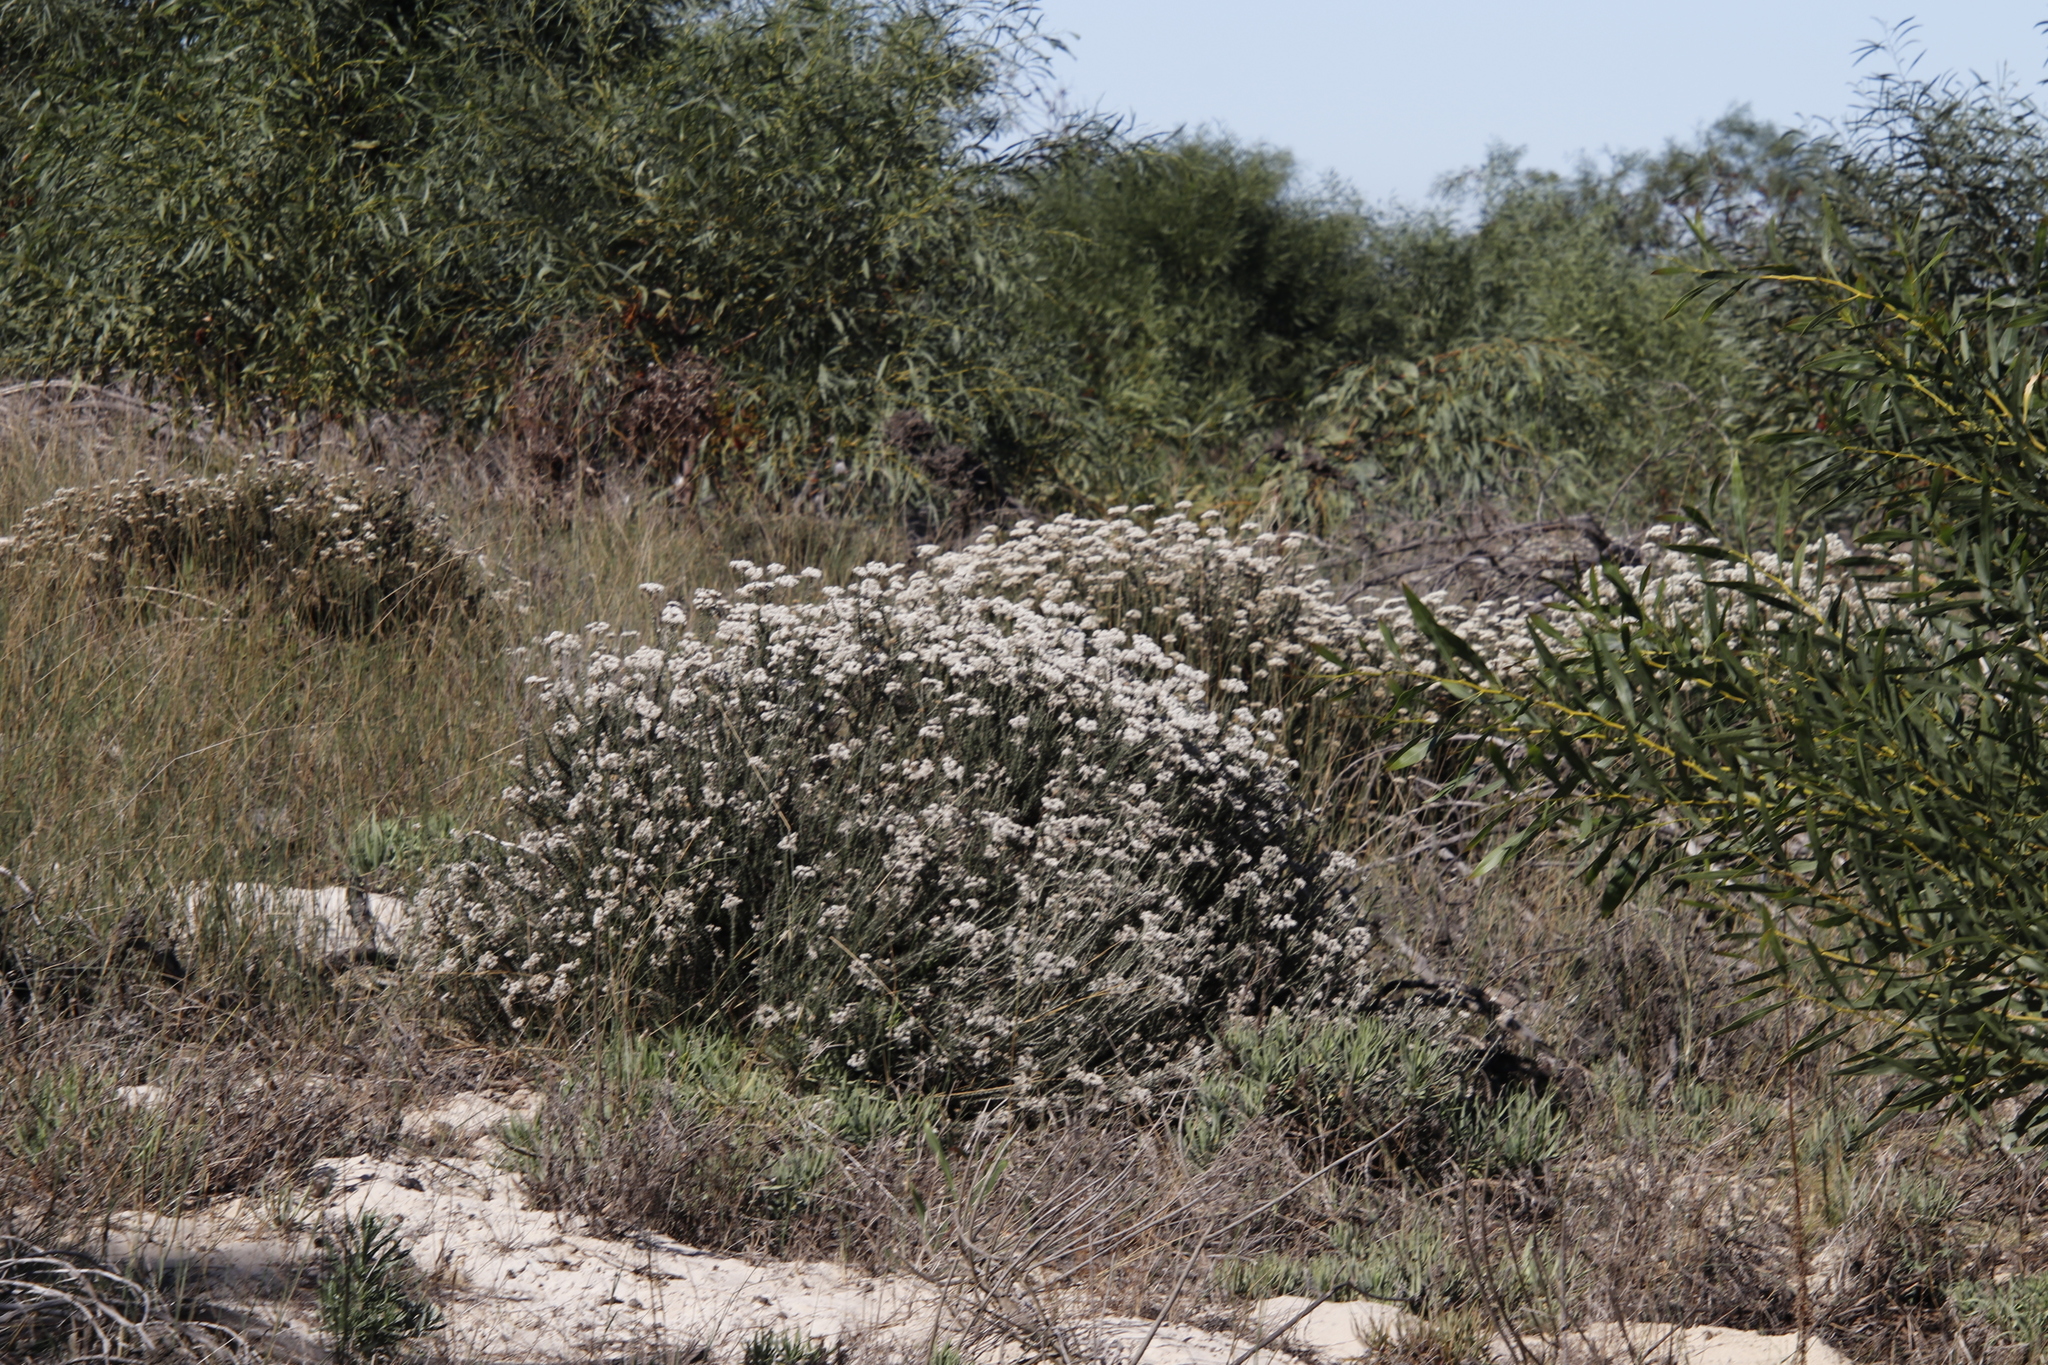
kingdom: Plantae
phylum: Tracheophyta
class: Magnoliopsida
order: Asterales
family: Asteraceae
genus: Metalasia
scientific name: Metalasia densa
